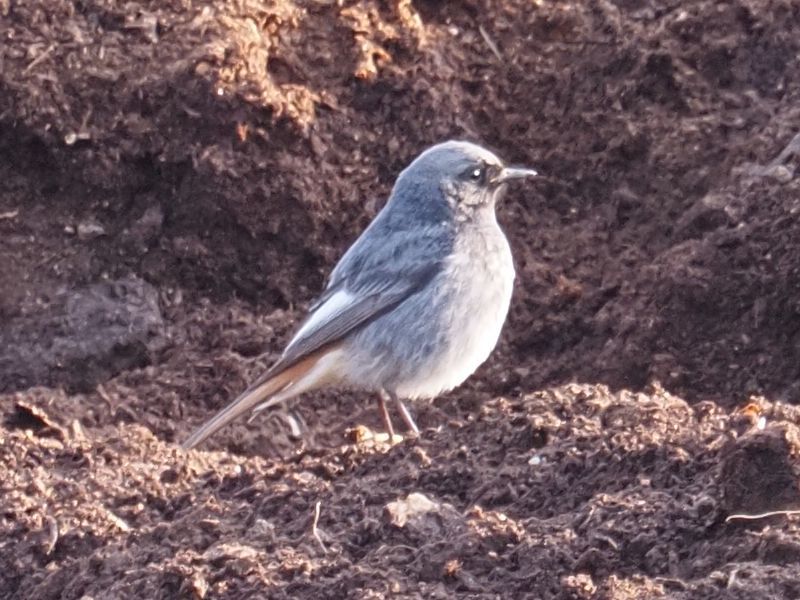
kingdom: Animalia
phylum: Chordata
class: Aves
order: Passeriformes
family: Muscicapidae
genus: Phoenicurus
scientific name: Phoenicurus ochruros
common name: Black redstart
